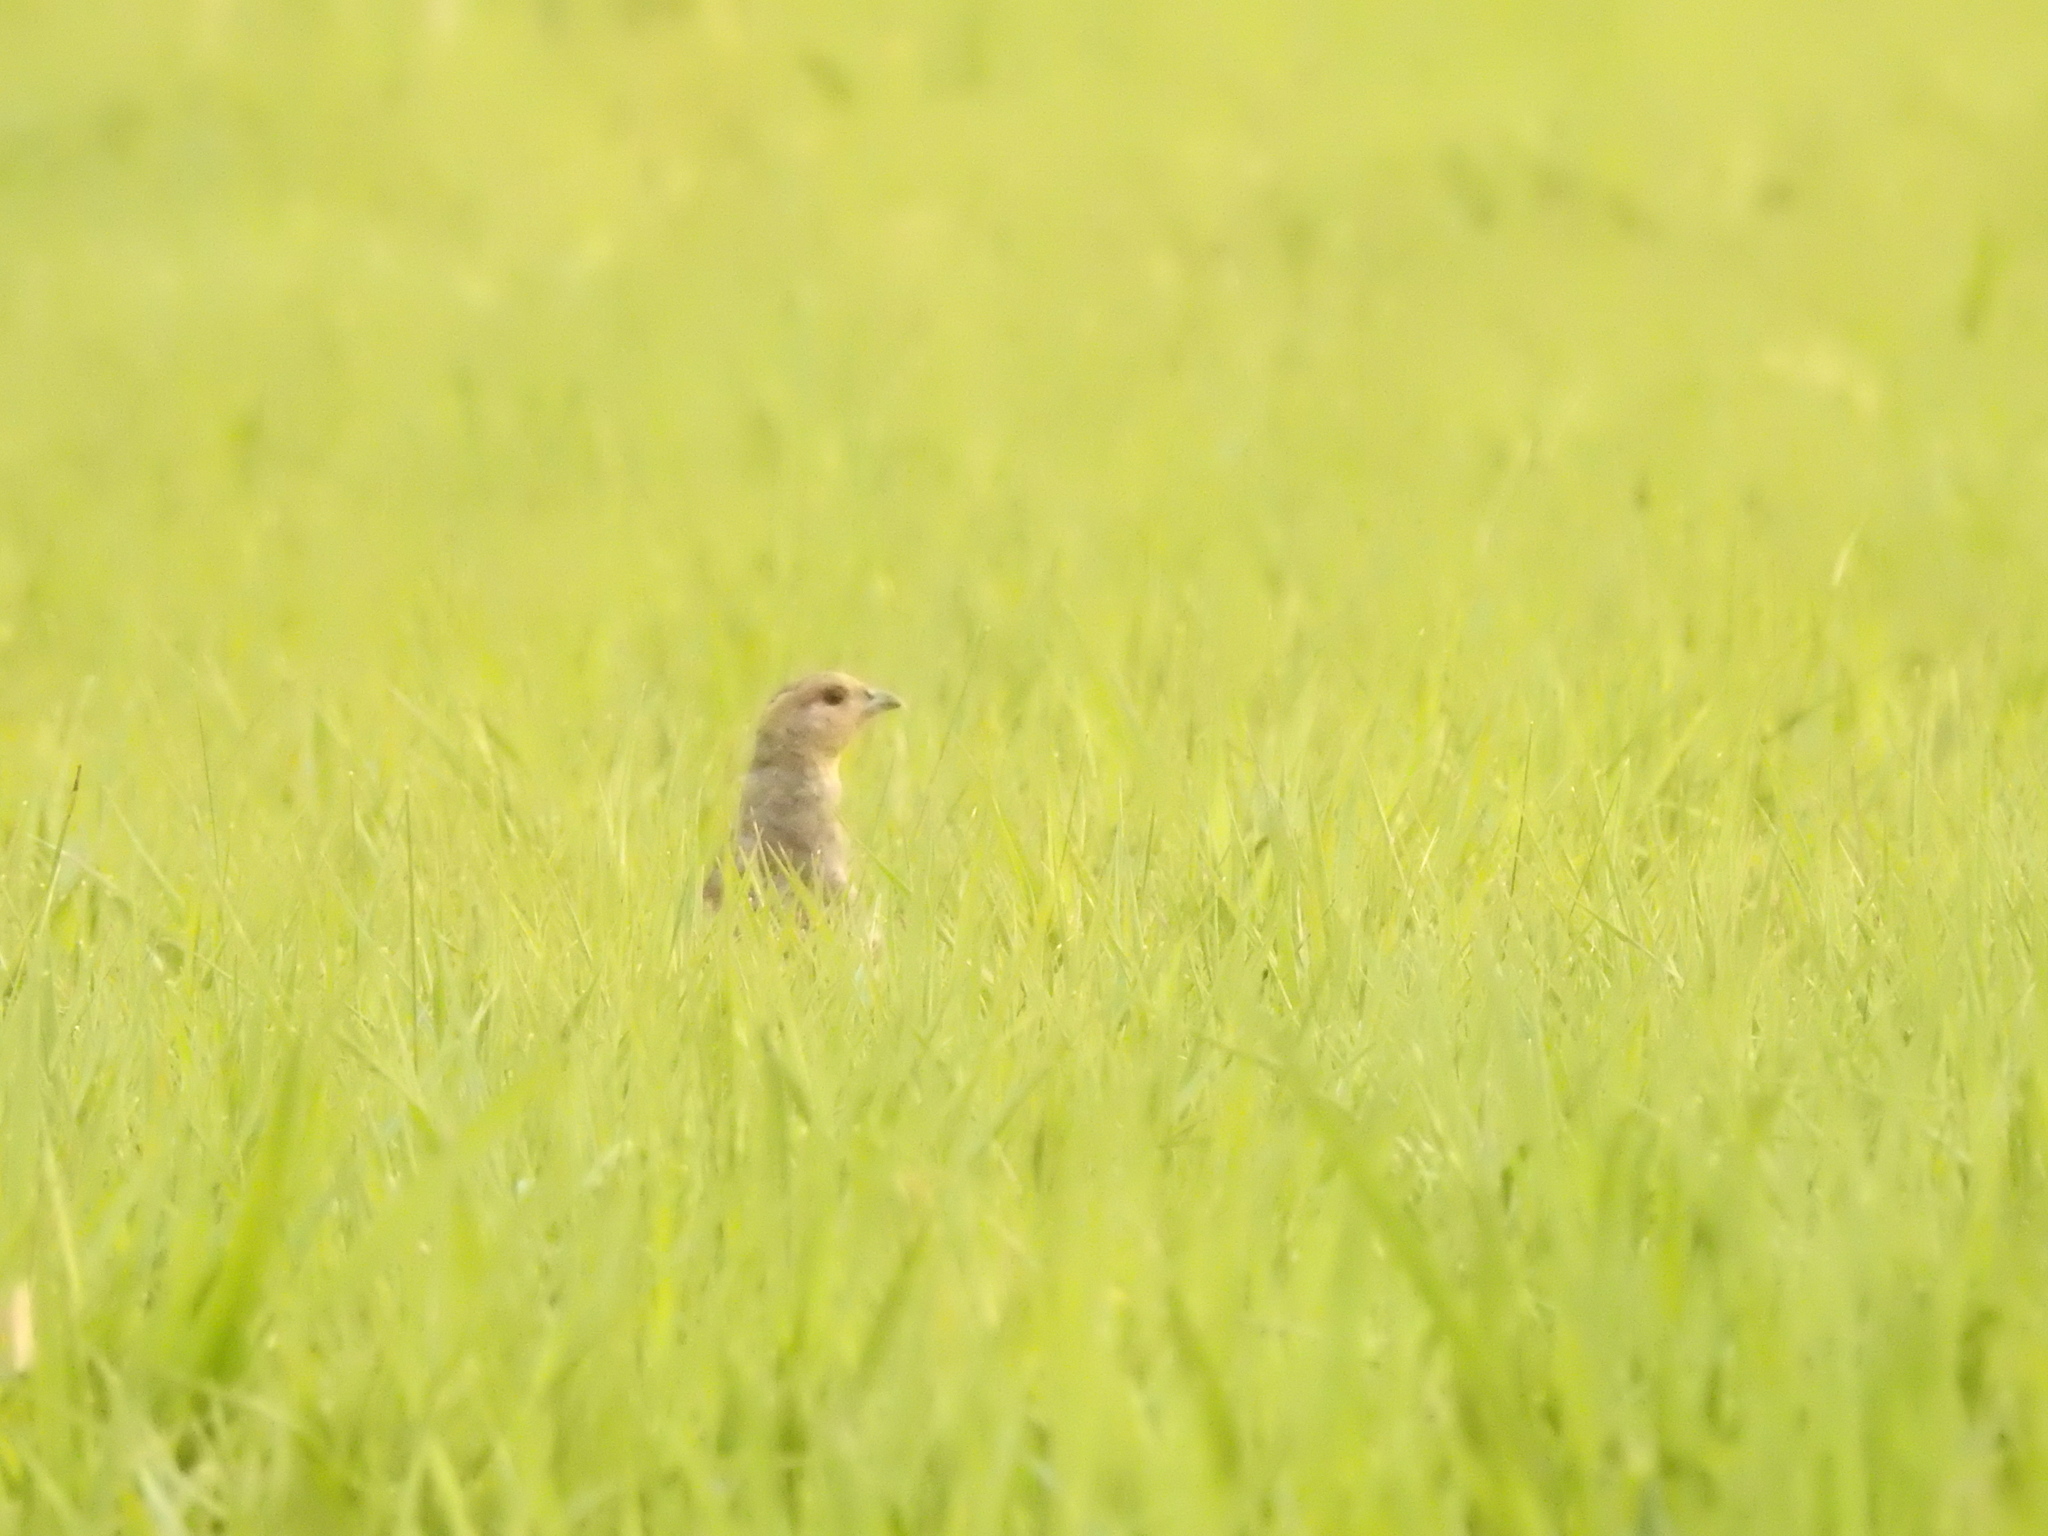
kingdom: Animalia
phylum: Chordata
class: Aves
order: Galliformes
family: Phasianidae
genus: Perdix
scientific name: Perdix perdix
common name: Grey partridge
